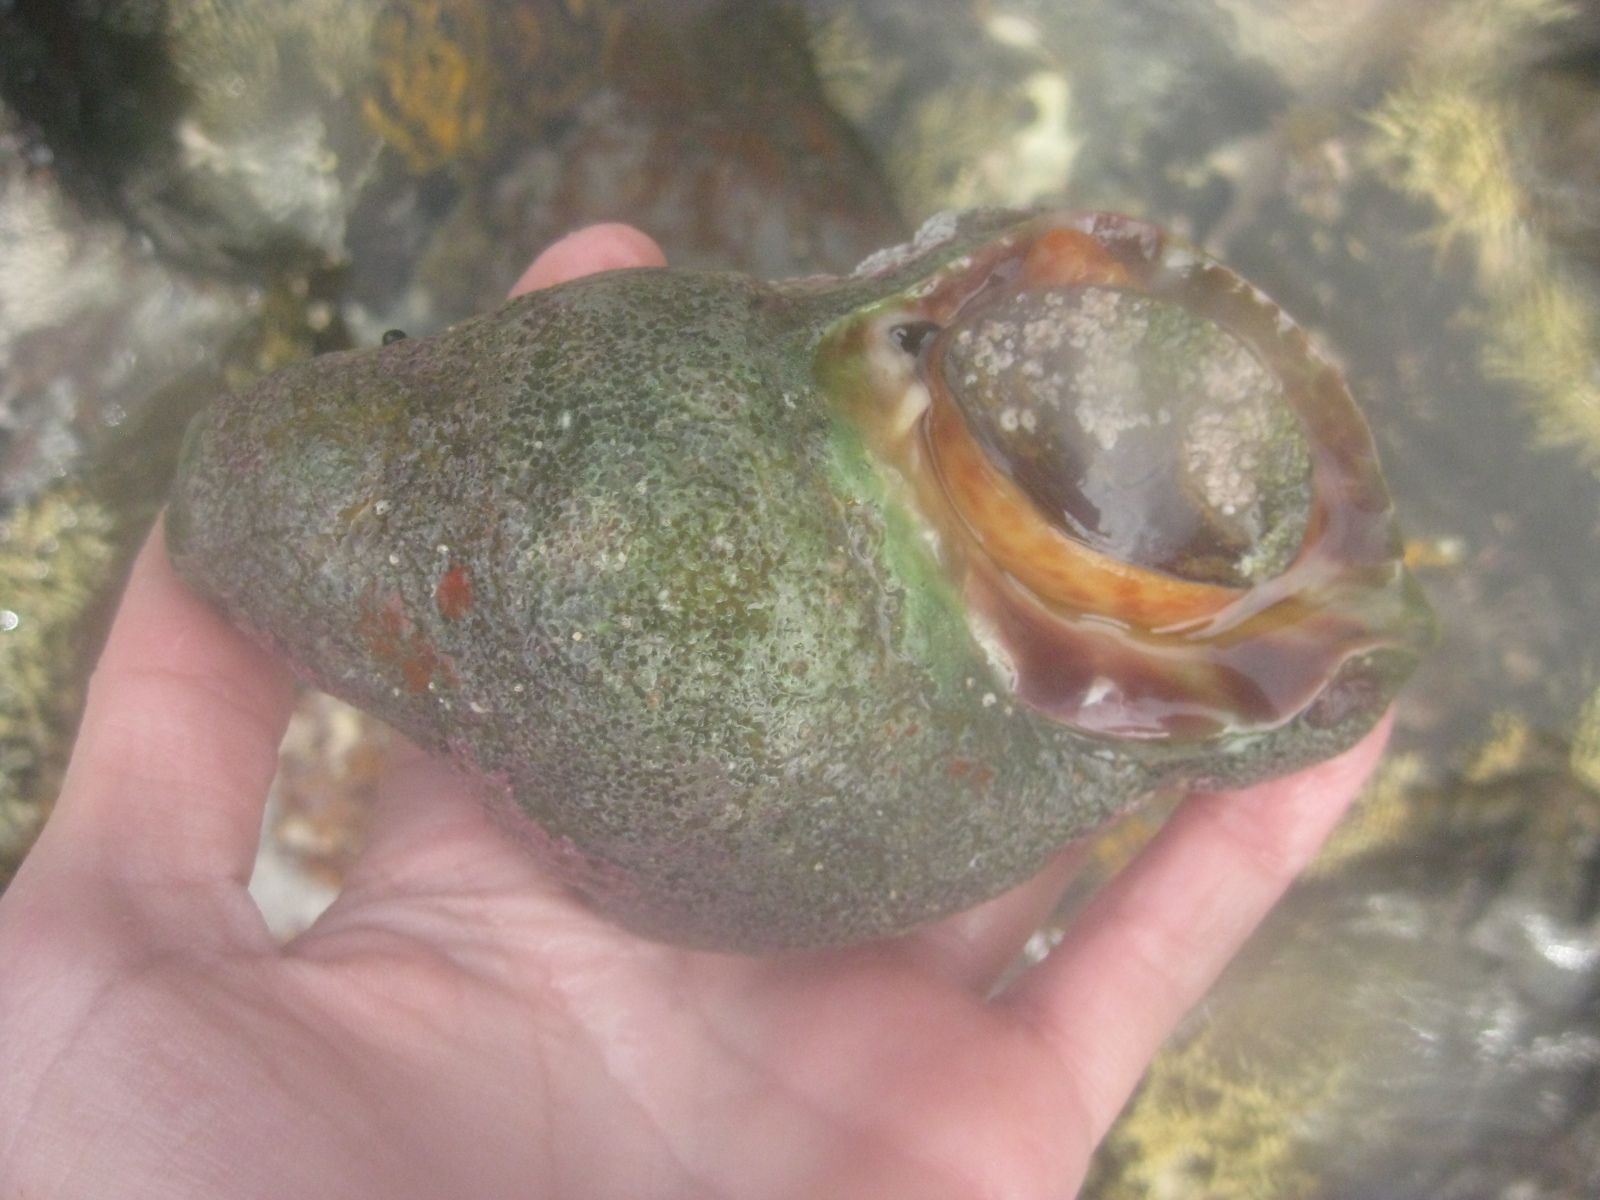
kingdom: Animalia
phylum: Mollusca
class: Gastropoda
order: Littorinimorpha
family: Charoniidae
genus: Charonia
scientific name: Charonia lampas
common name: Knobbed triton
